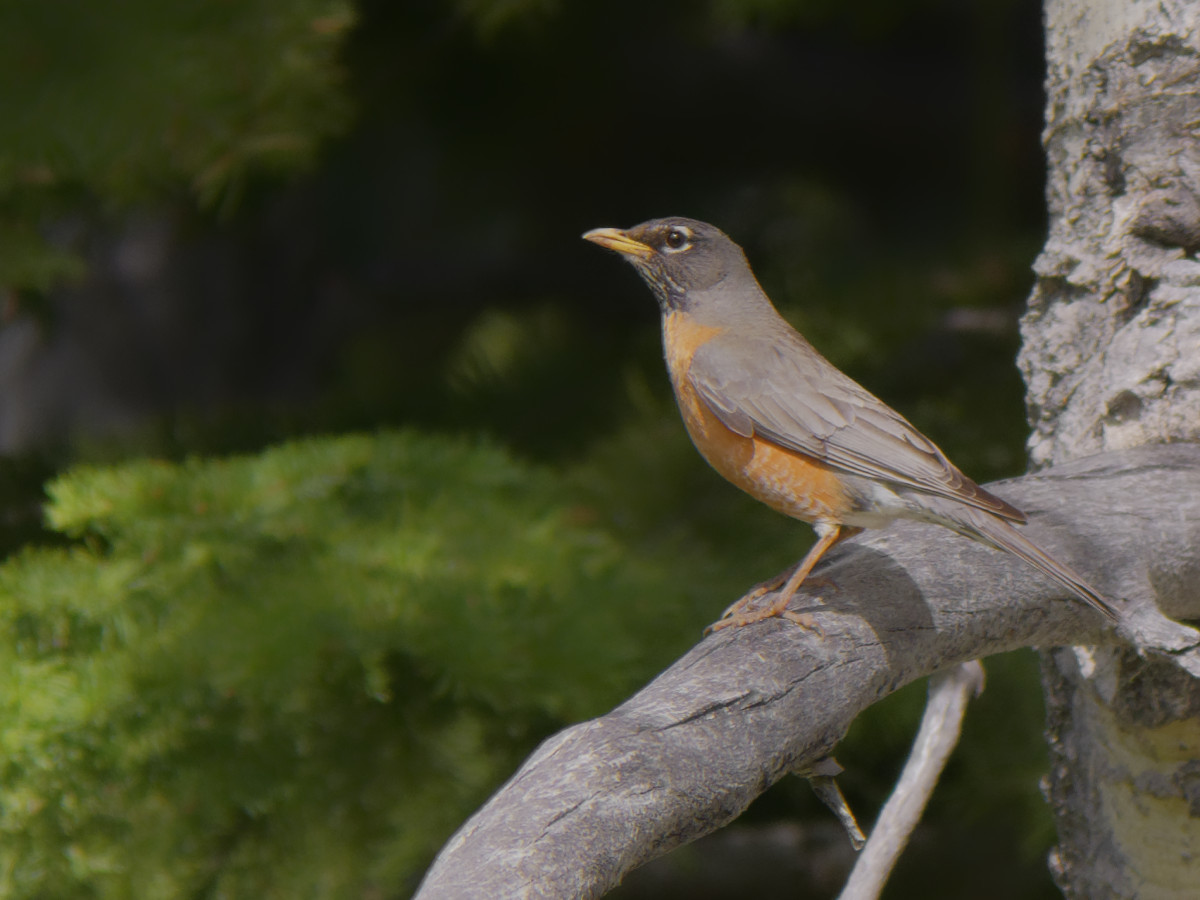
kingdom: Animalia
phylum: Chordata
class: Aves
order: Passeriformes
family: Turdidae
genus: Turdus
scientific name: Turdus migratorius
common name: American robin
